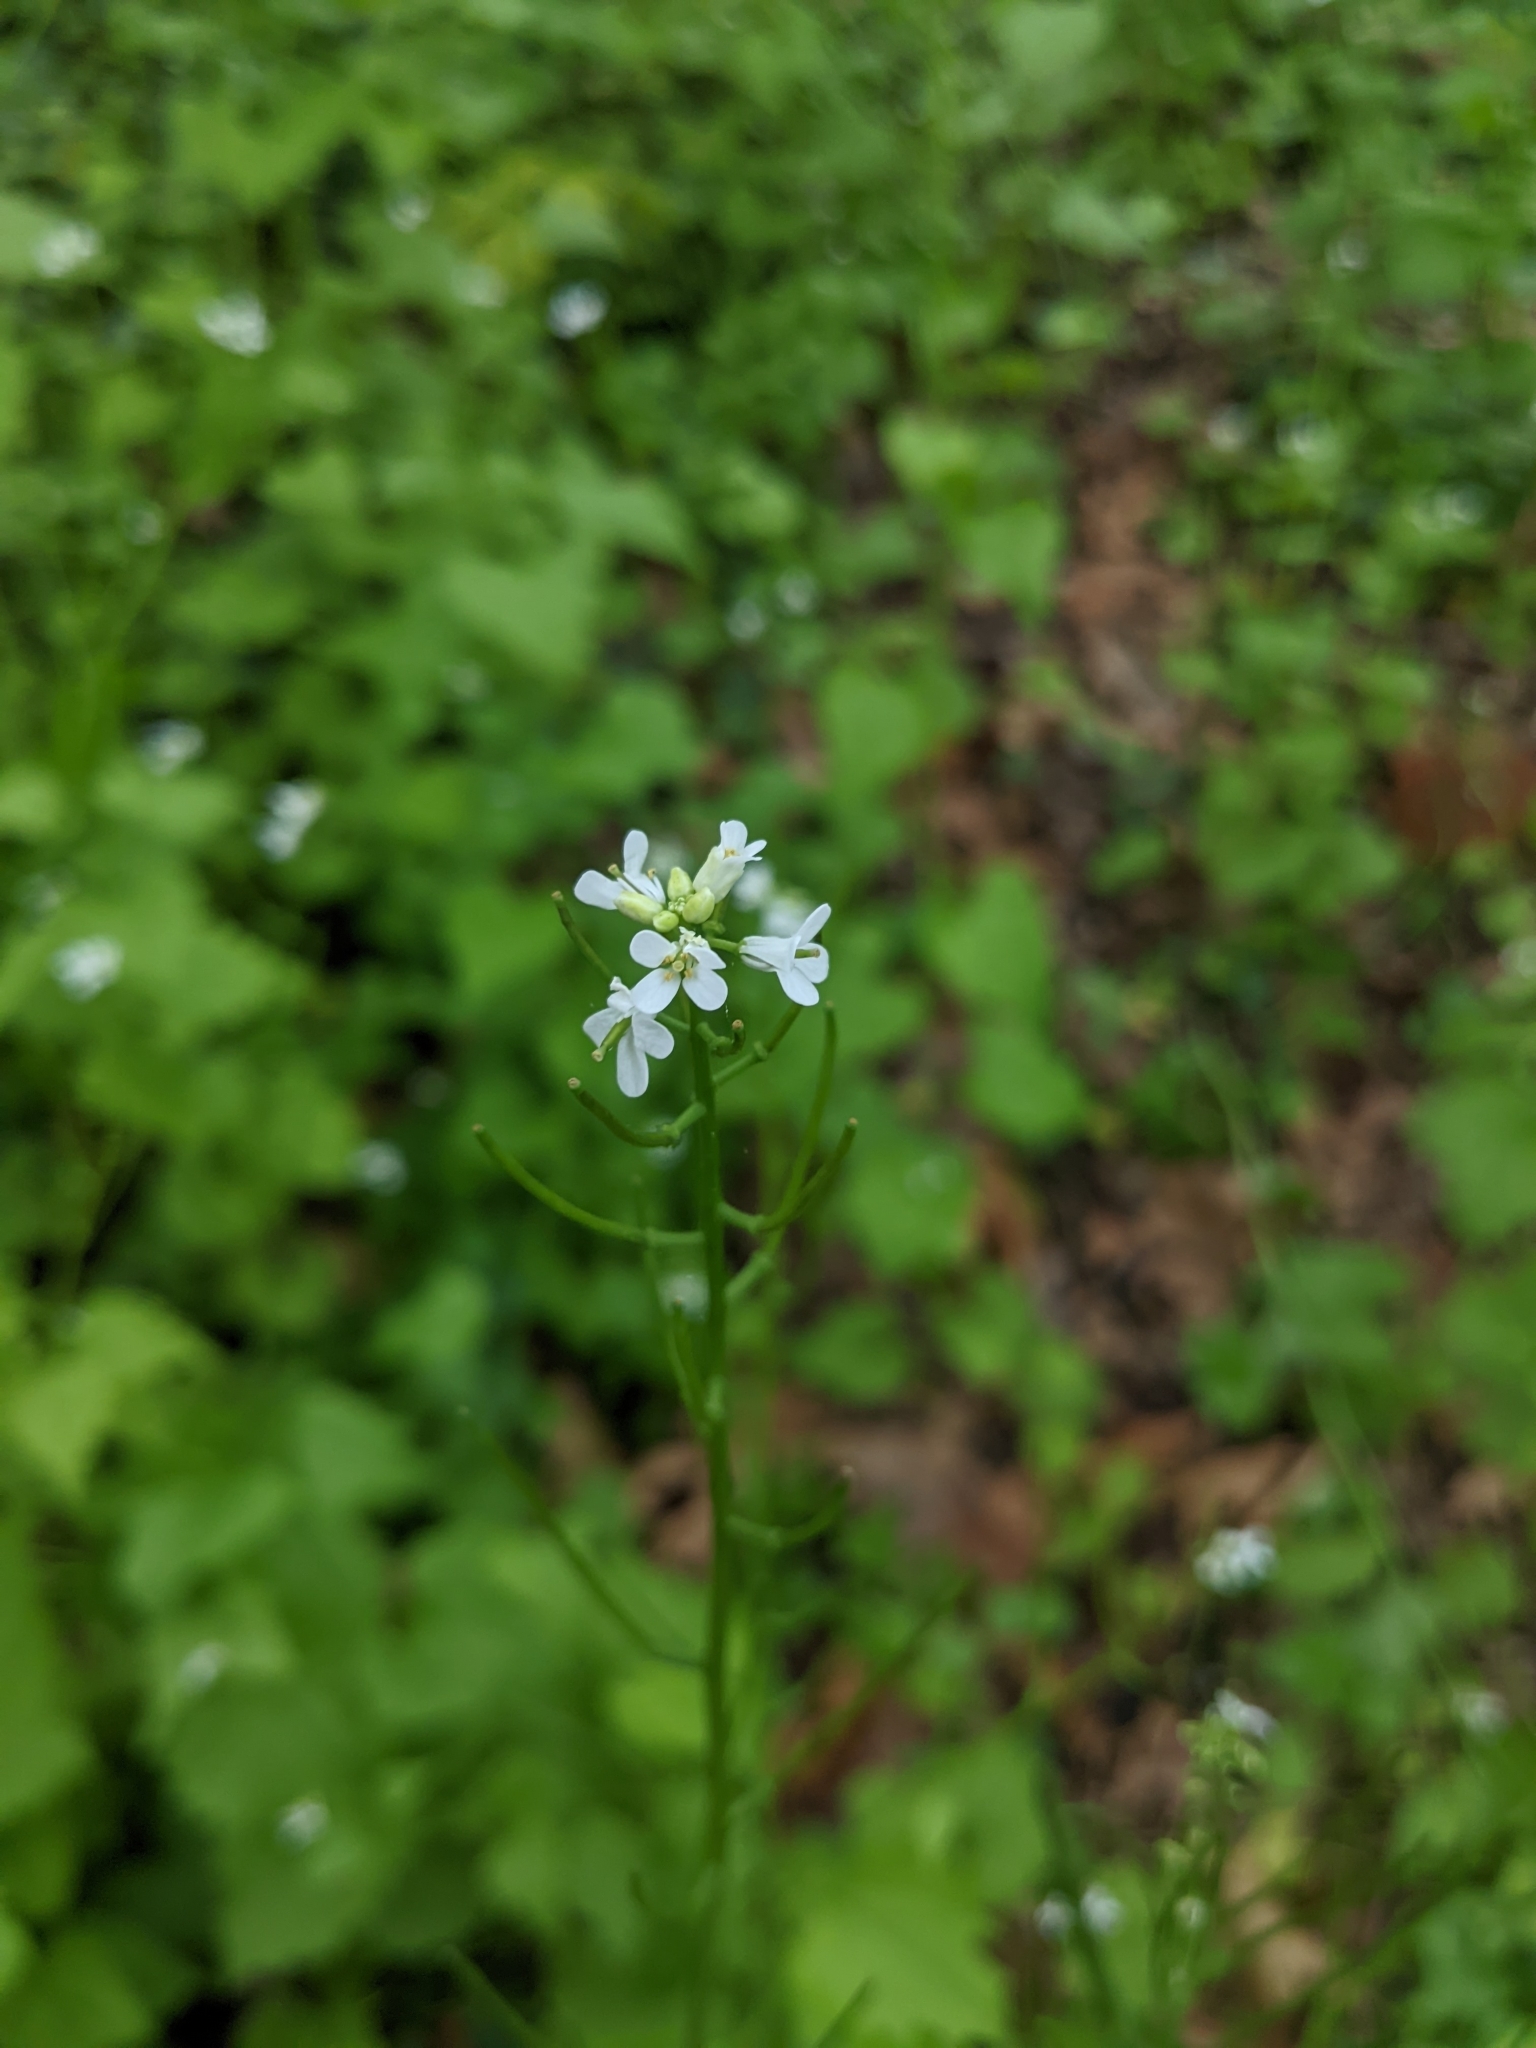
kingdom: Plantae
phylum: Tracheophyta
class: Magnoliopsida
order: Brassicales
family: Brassicaceae
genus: Alliaria
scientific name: Alliaria petiolata
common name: Garlic mustard
